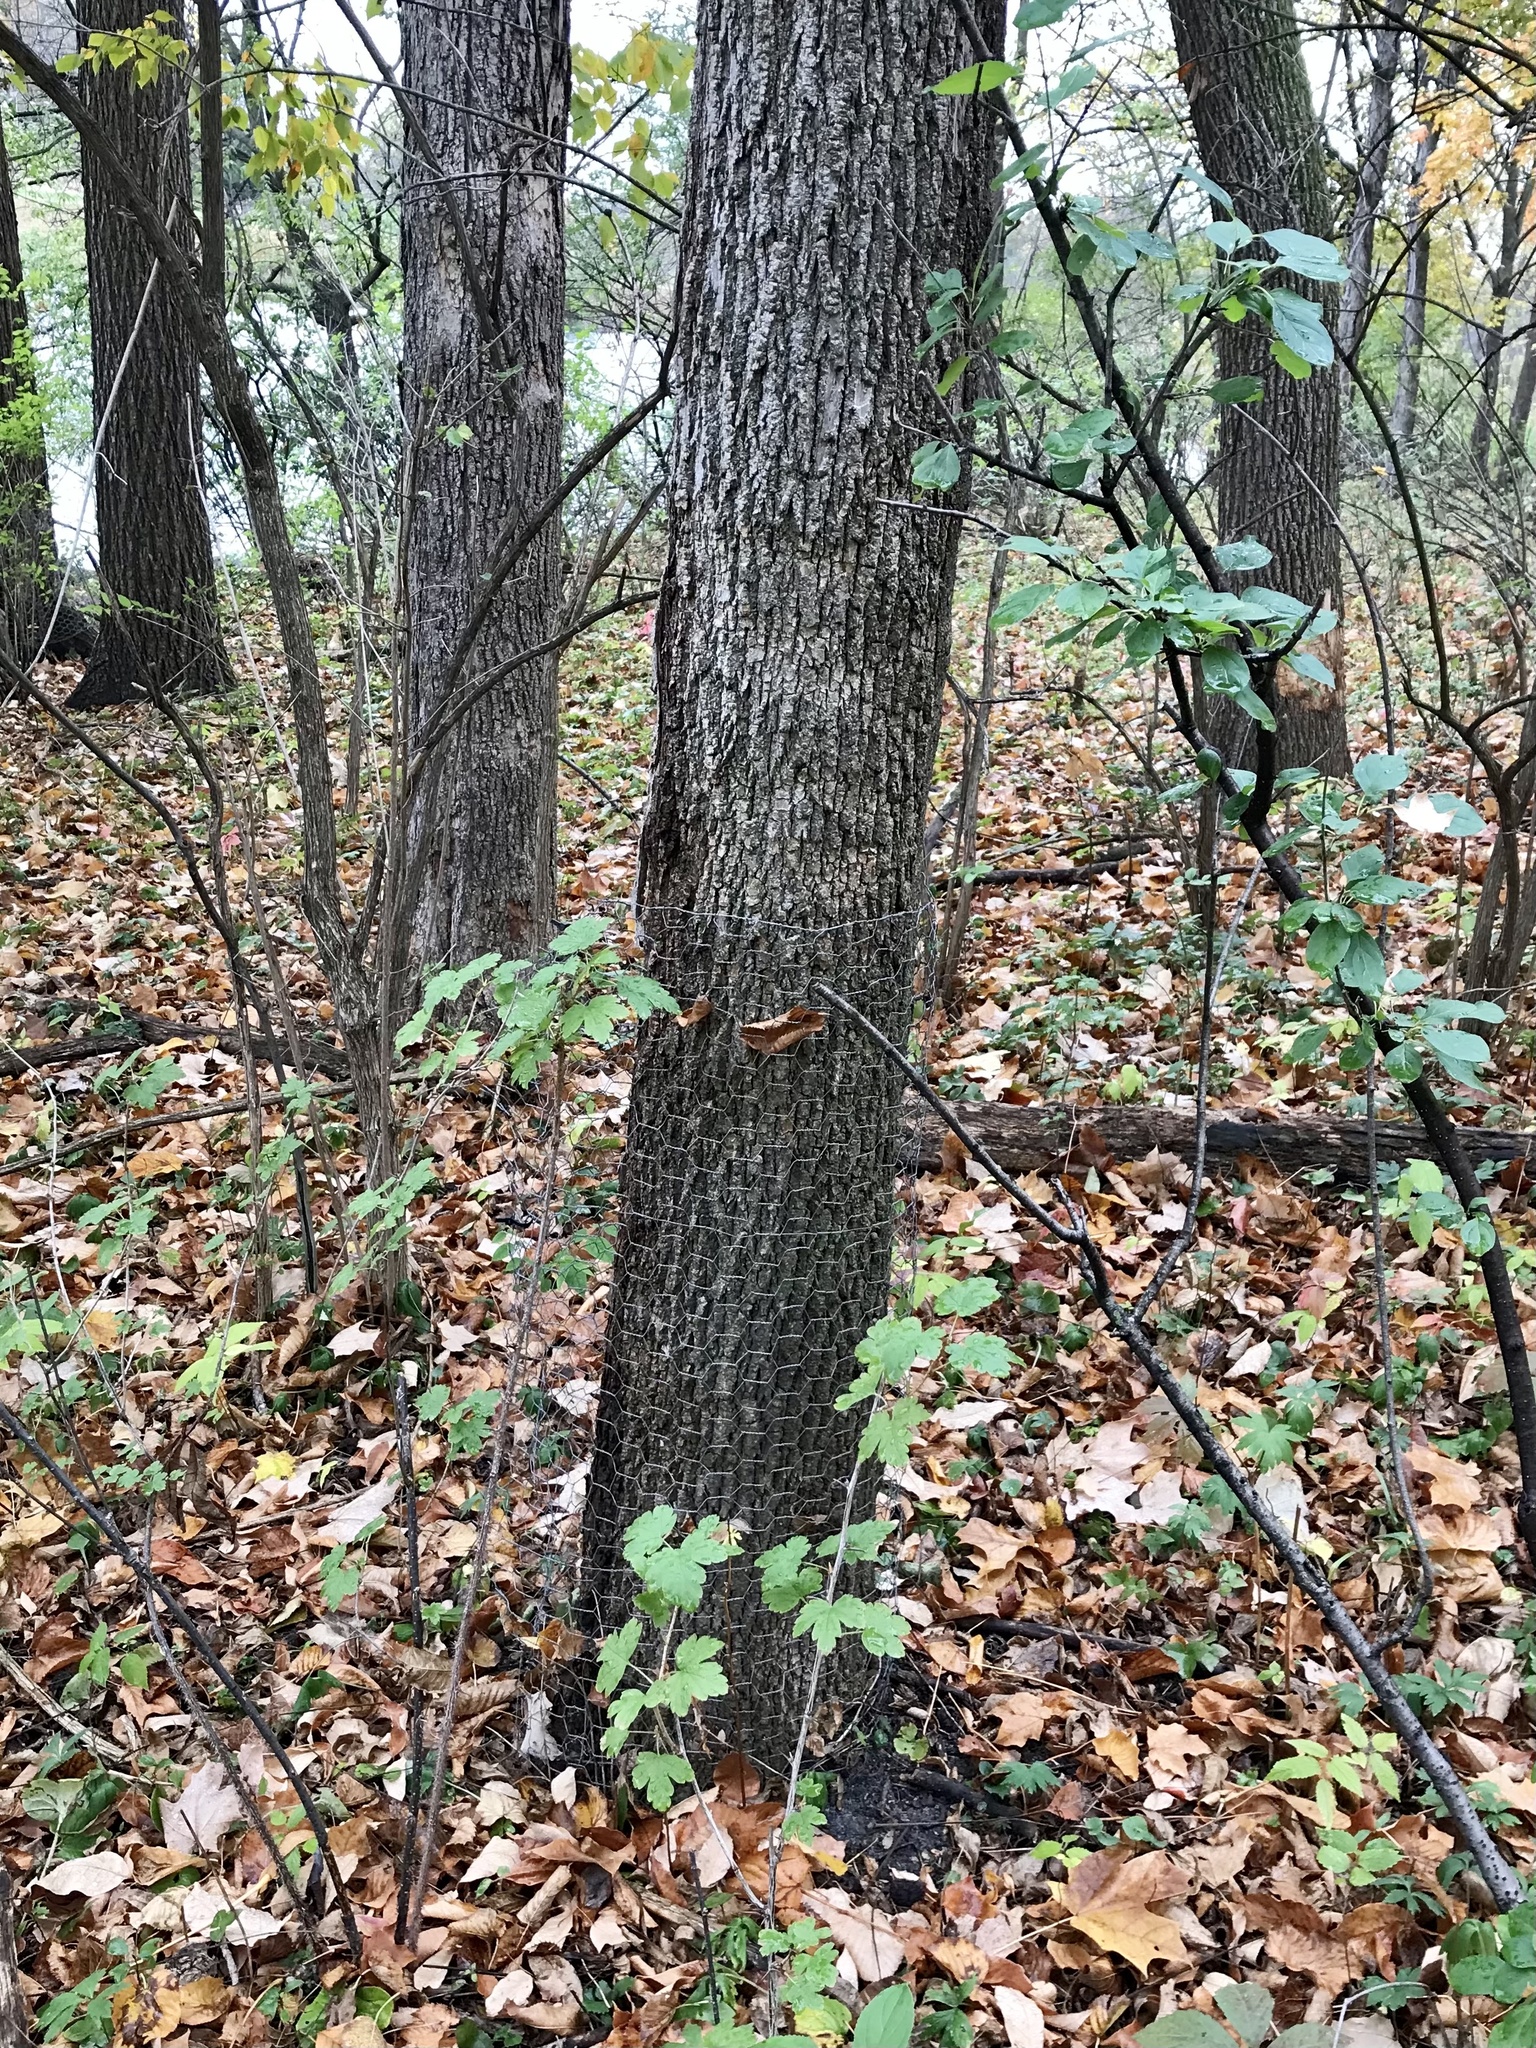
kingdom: Plantae
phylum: Tracheophyta
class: Magnoliopsida
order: Lamiales
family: Oleaceae
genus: Fraxinus
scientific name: Fraxinus americana
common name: White ash
